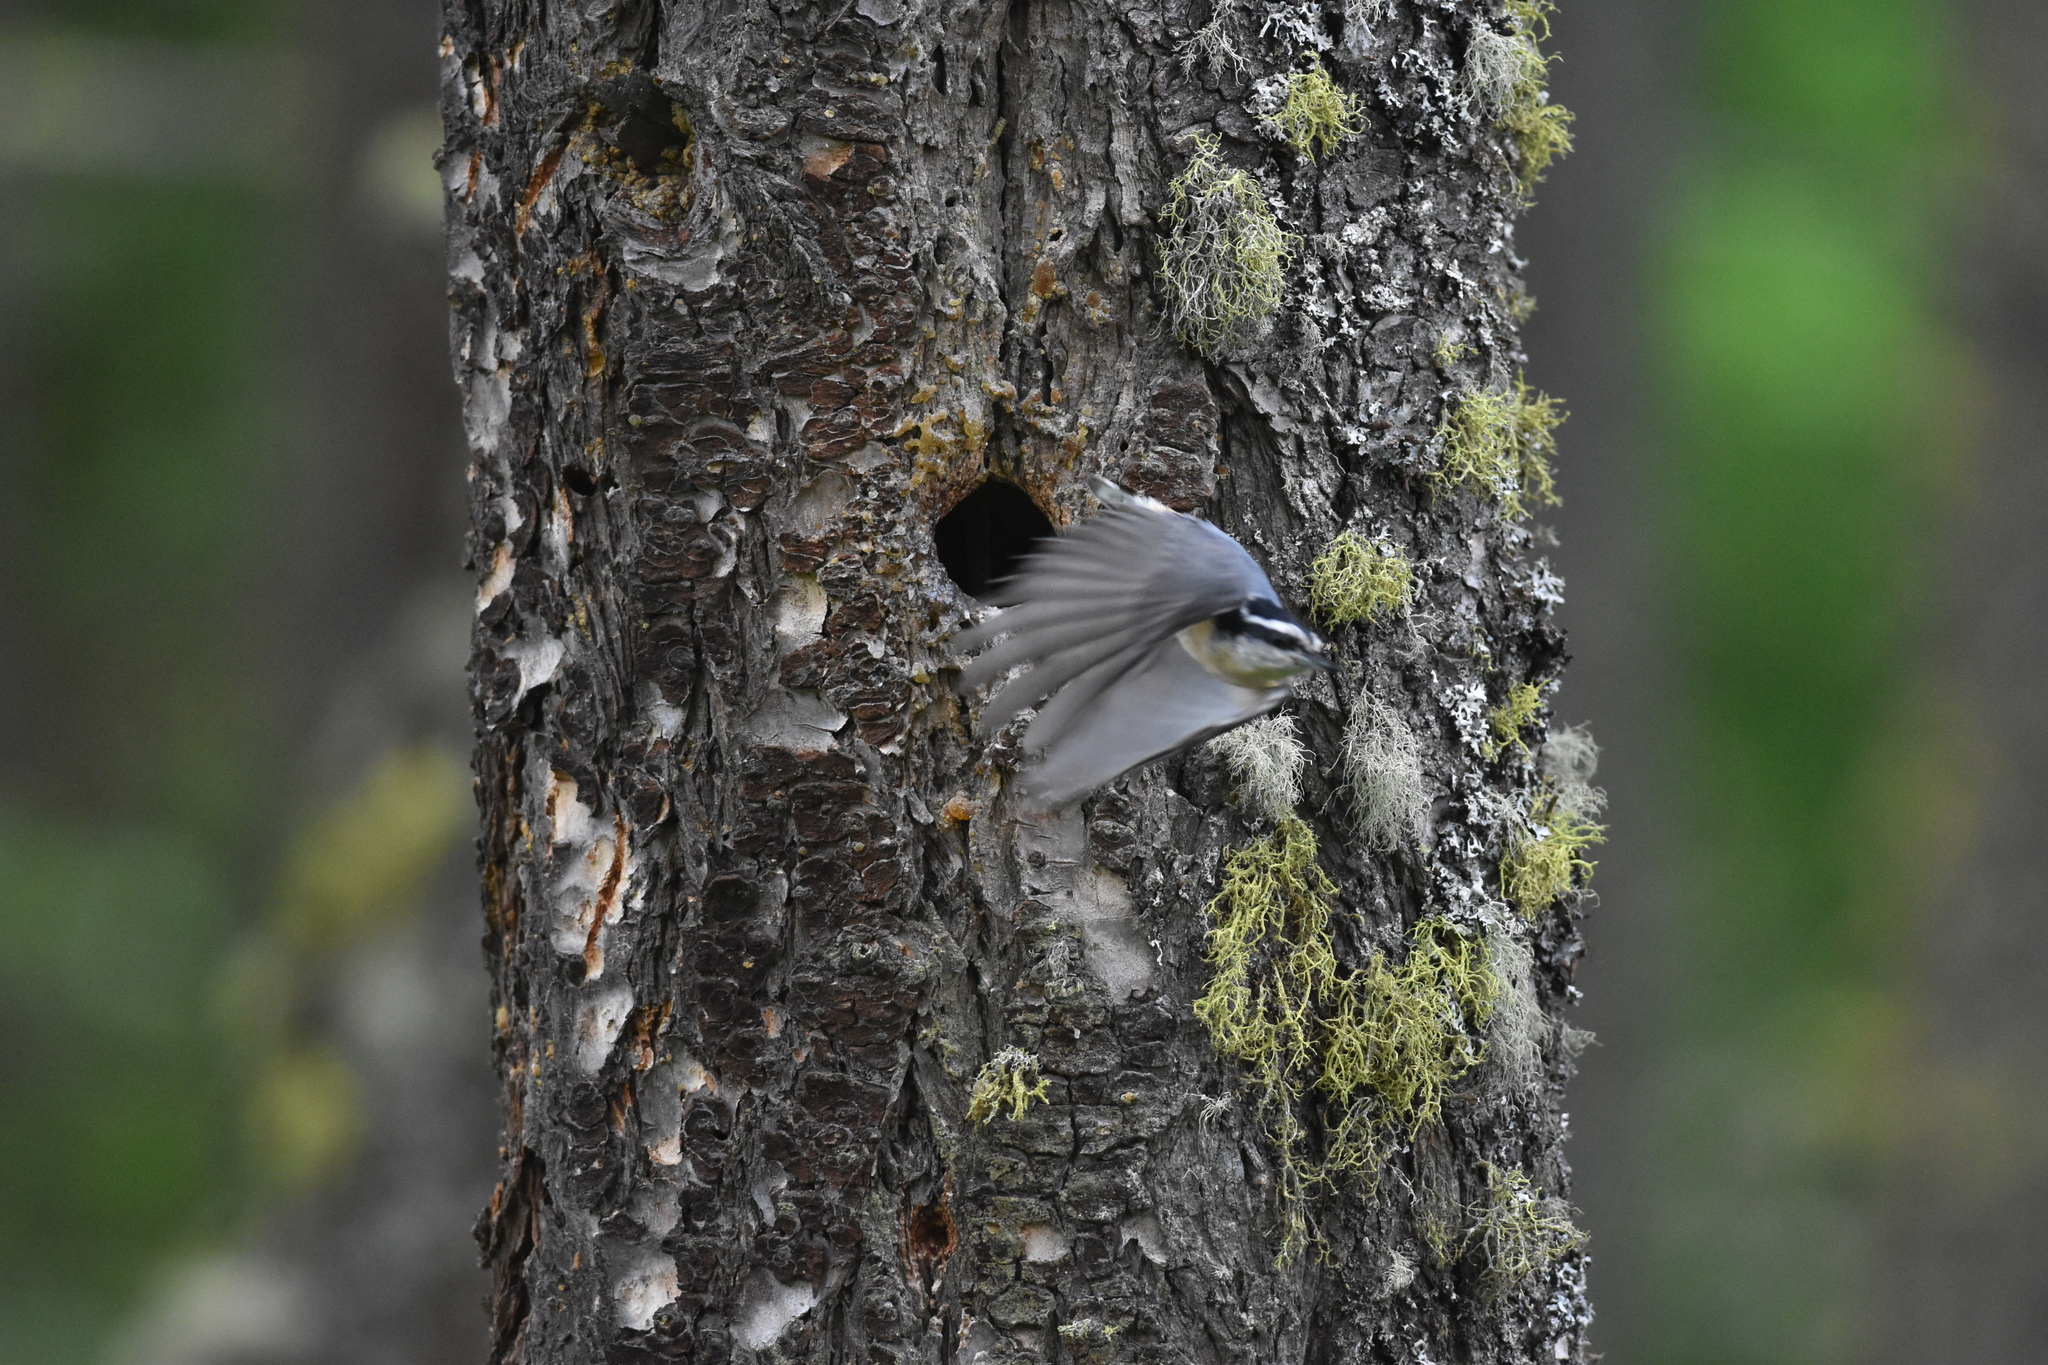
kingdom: Animalia
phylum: Chordata
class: Aves
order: Passeriformes
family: Sittidae
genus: Sitta
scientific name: Sitta canadensis
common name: Red-breasted nuthatch
